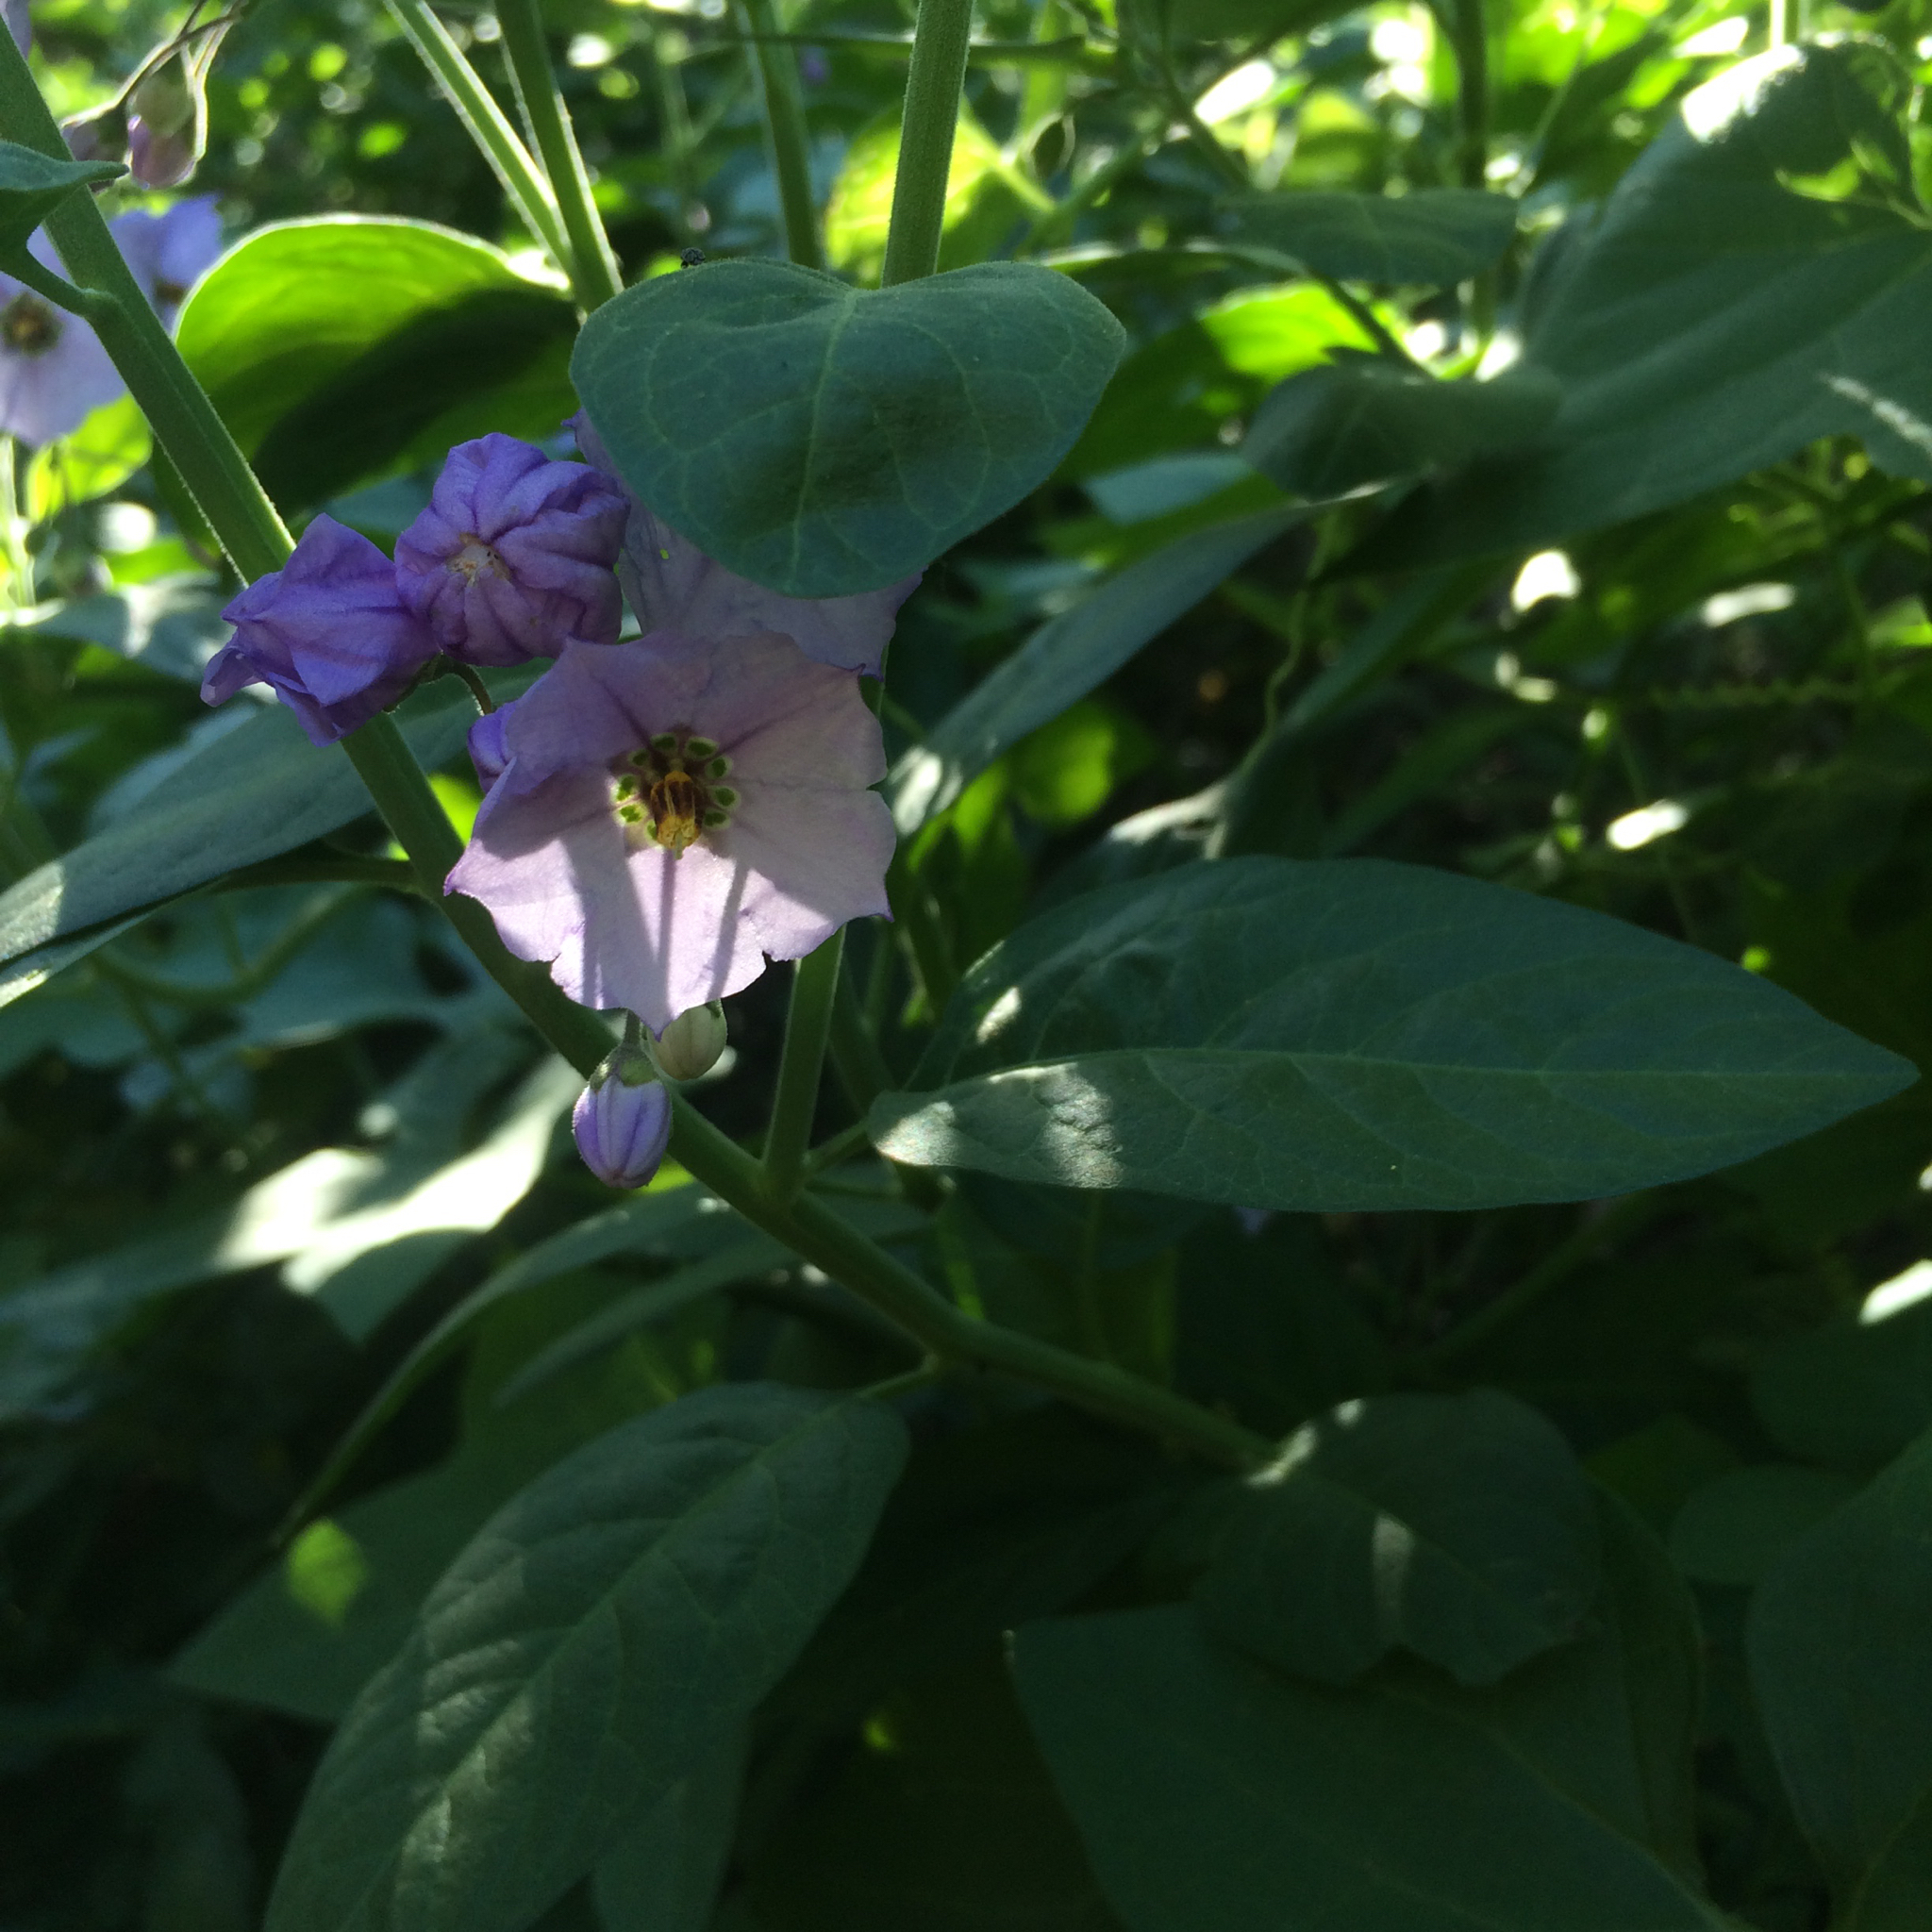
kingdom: Plantae
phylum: Tracheophyta
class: Magnoliopsida
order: Solanales
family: Solanaceae
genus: Solanum
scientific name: Solanum umbelliferum
